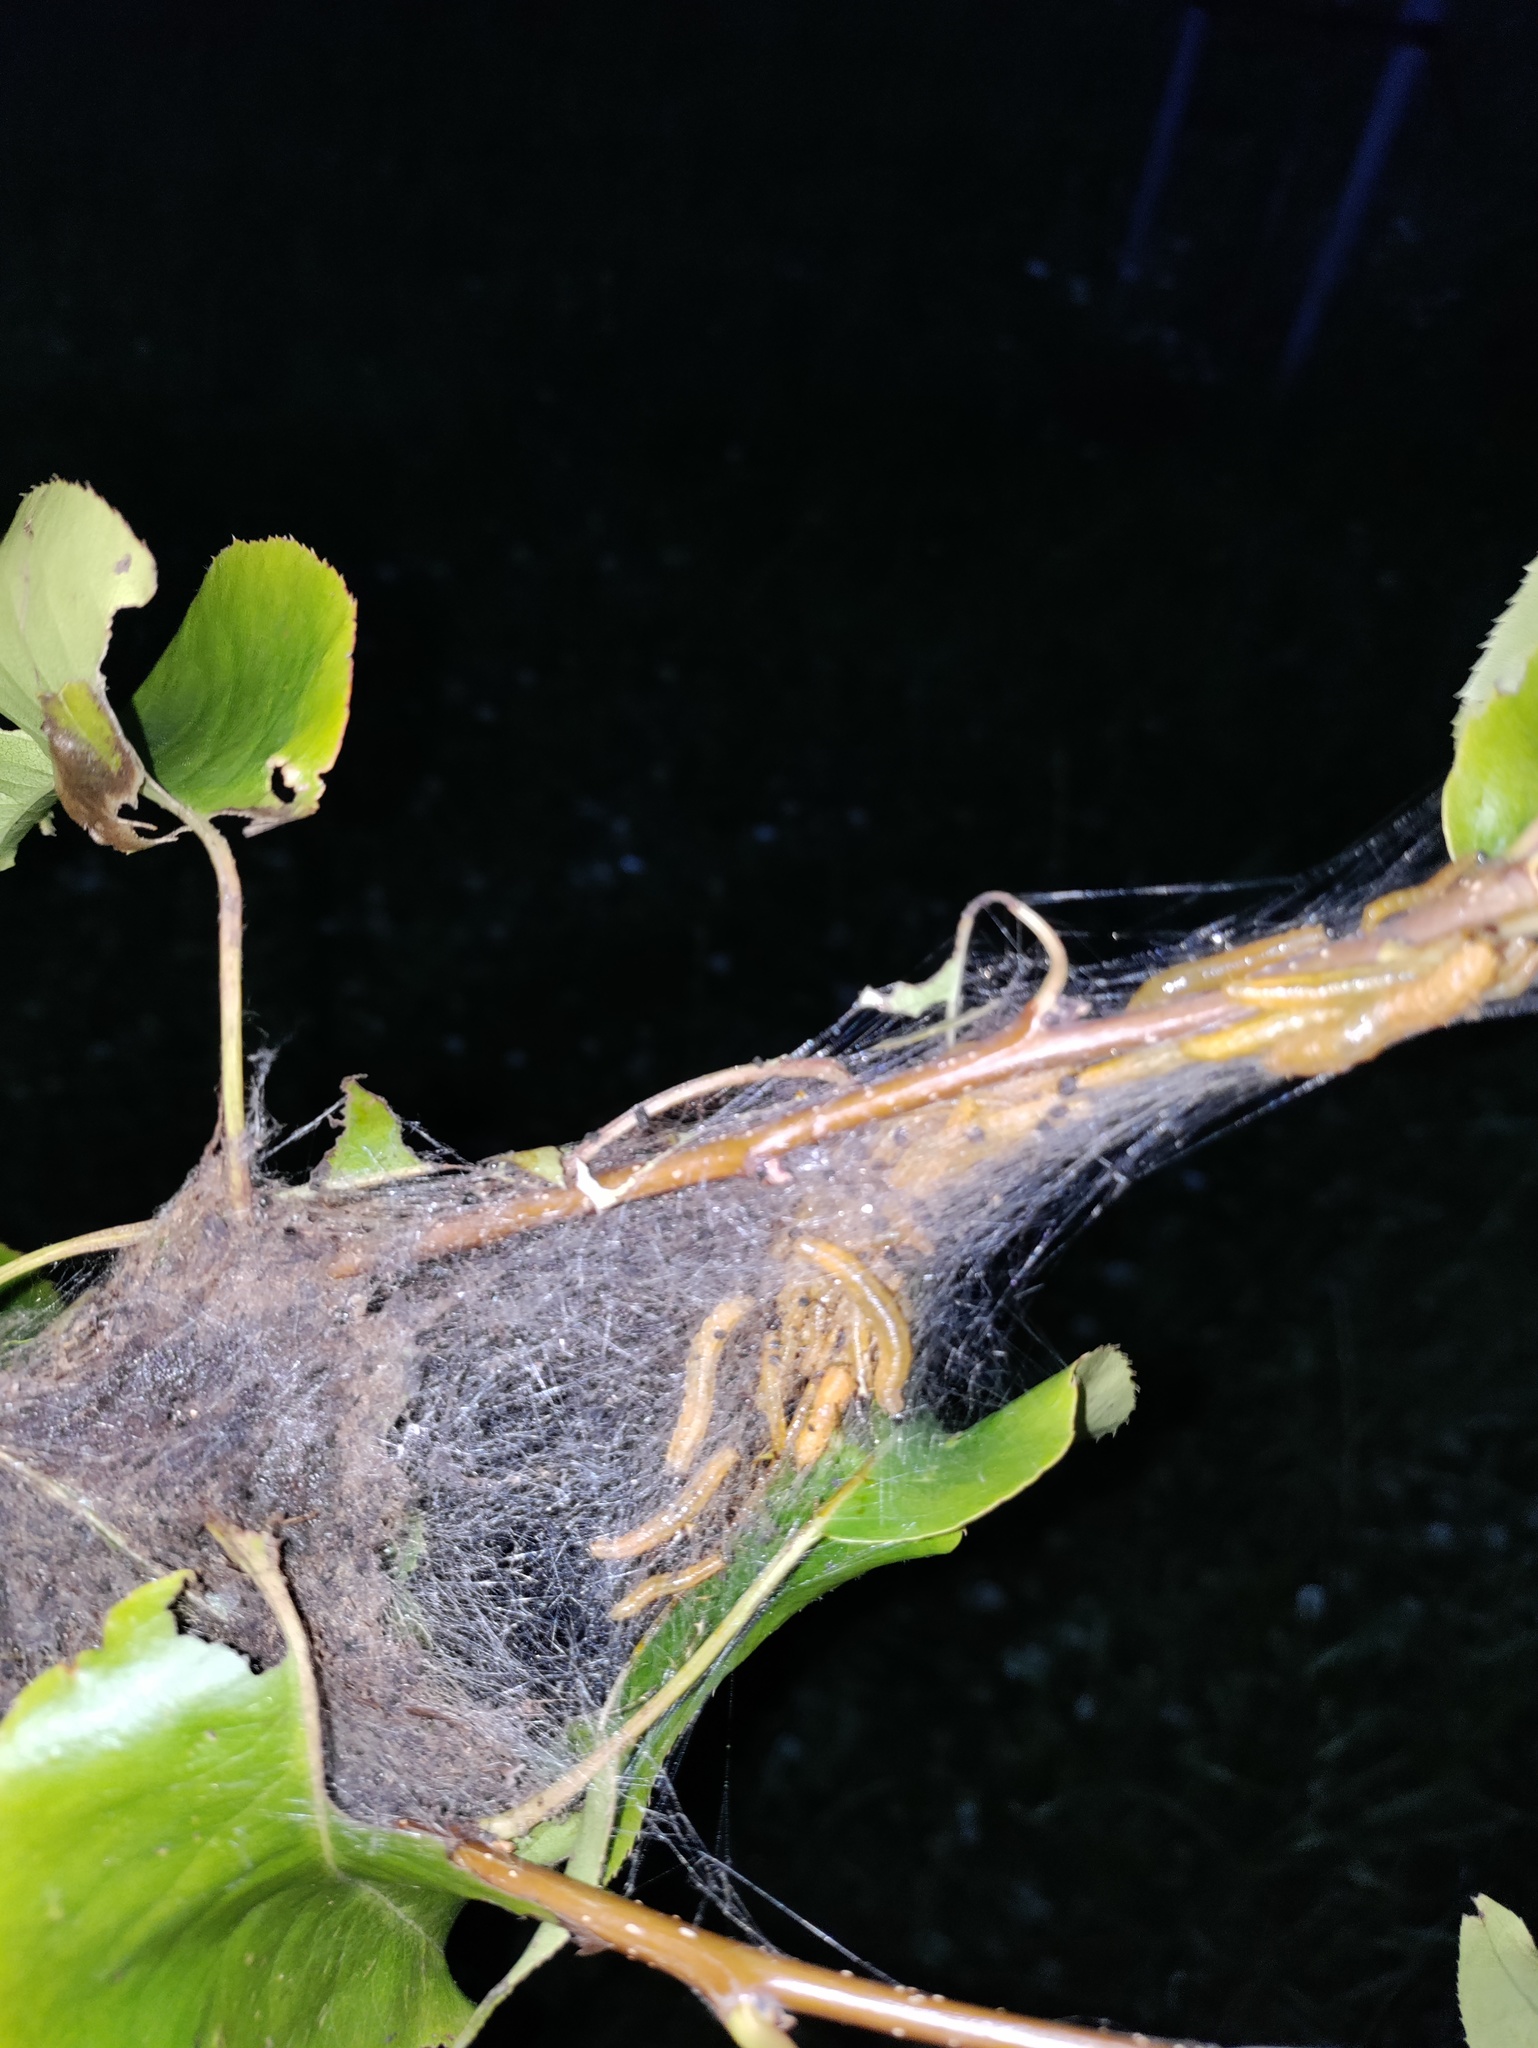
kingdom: Animalia
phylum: Arthropoda
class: Insecta
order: Hymenoptera
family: Pamphiliidae
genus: Neurotoma
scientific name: Neurotoma saltuum
